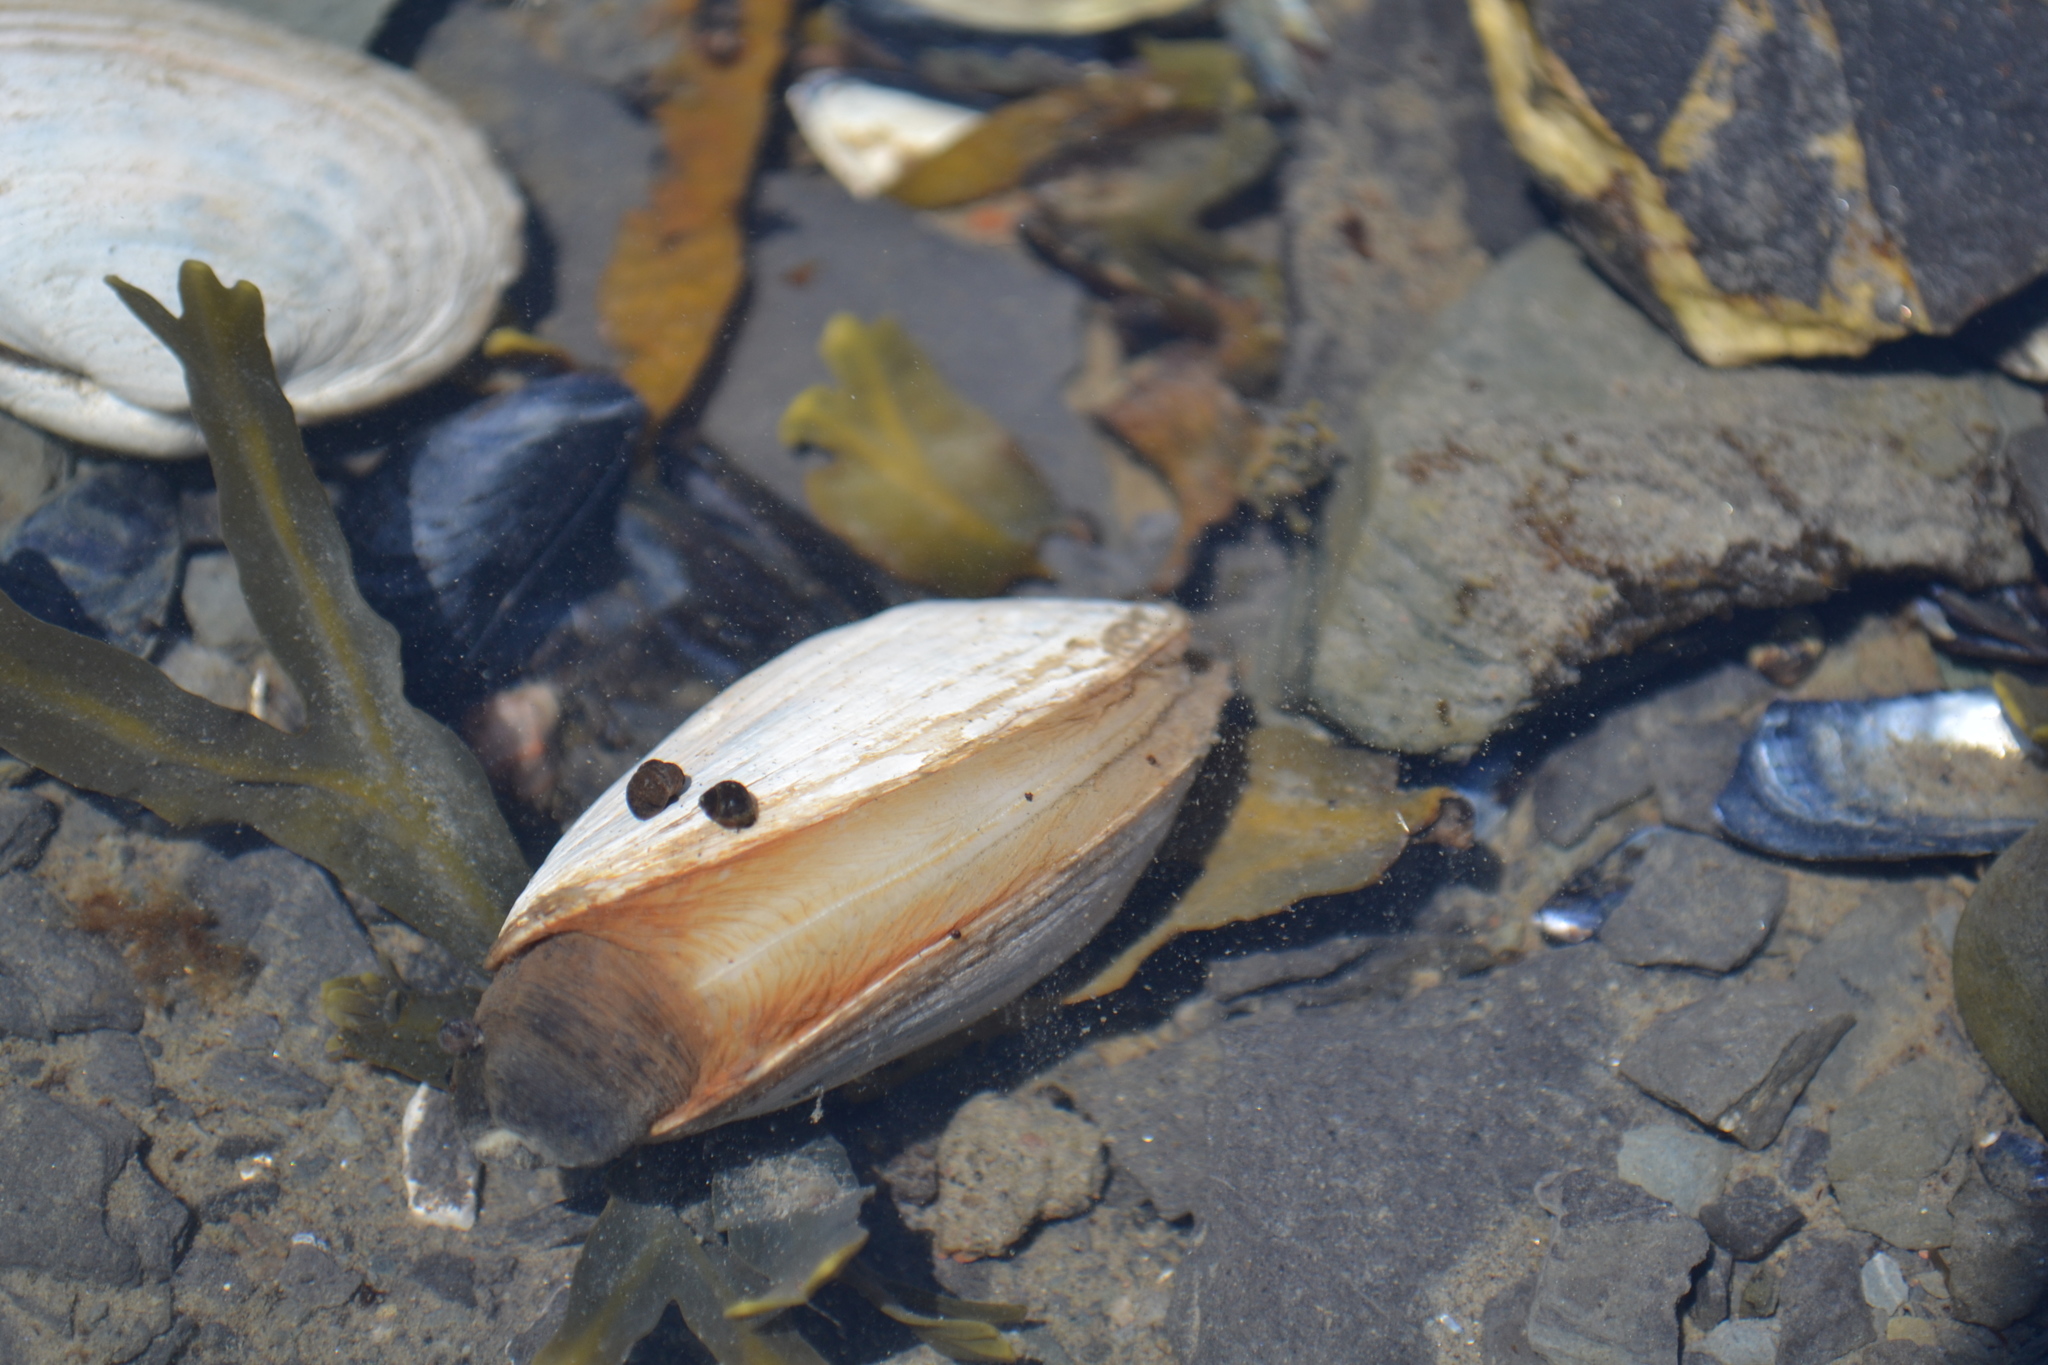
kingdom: Animalia
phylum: Mollusca
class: Bivalvia
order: Myida
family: Myidae
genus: Mya
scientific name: Mya arenaria
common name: Soft-shelled clam
